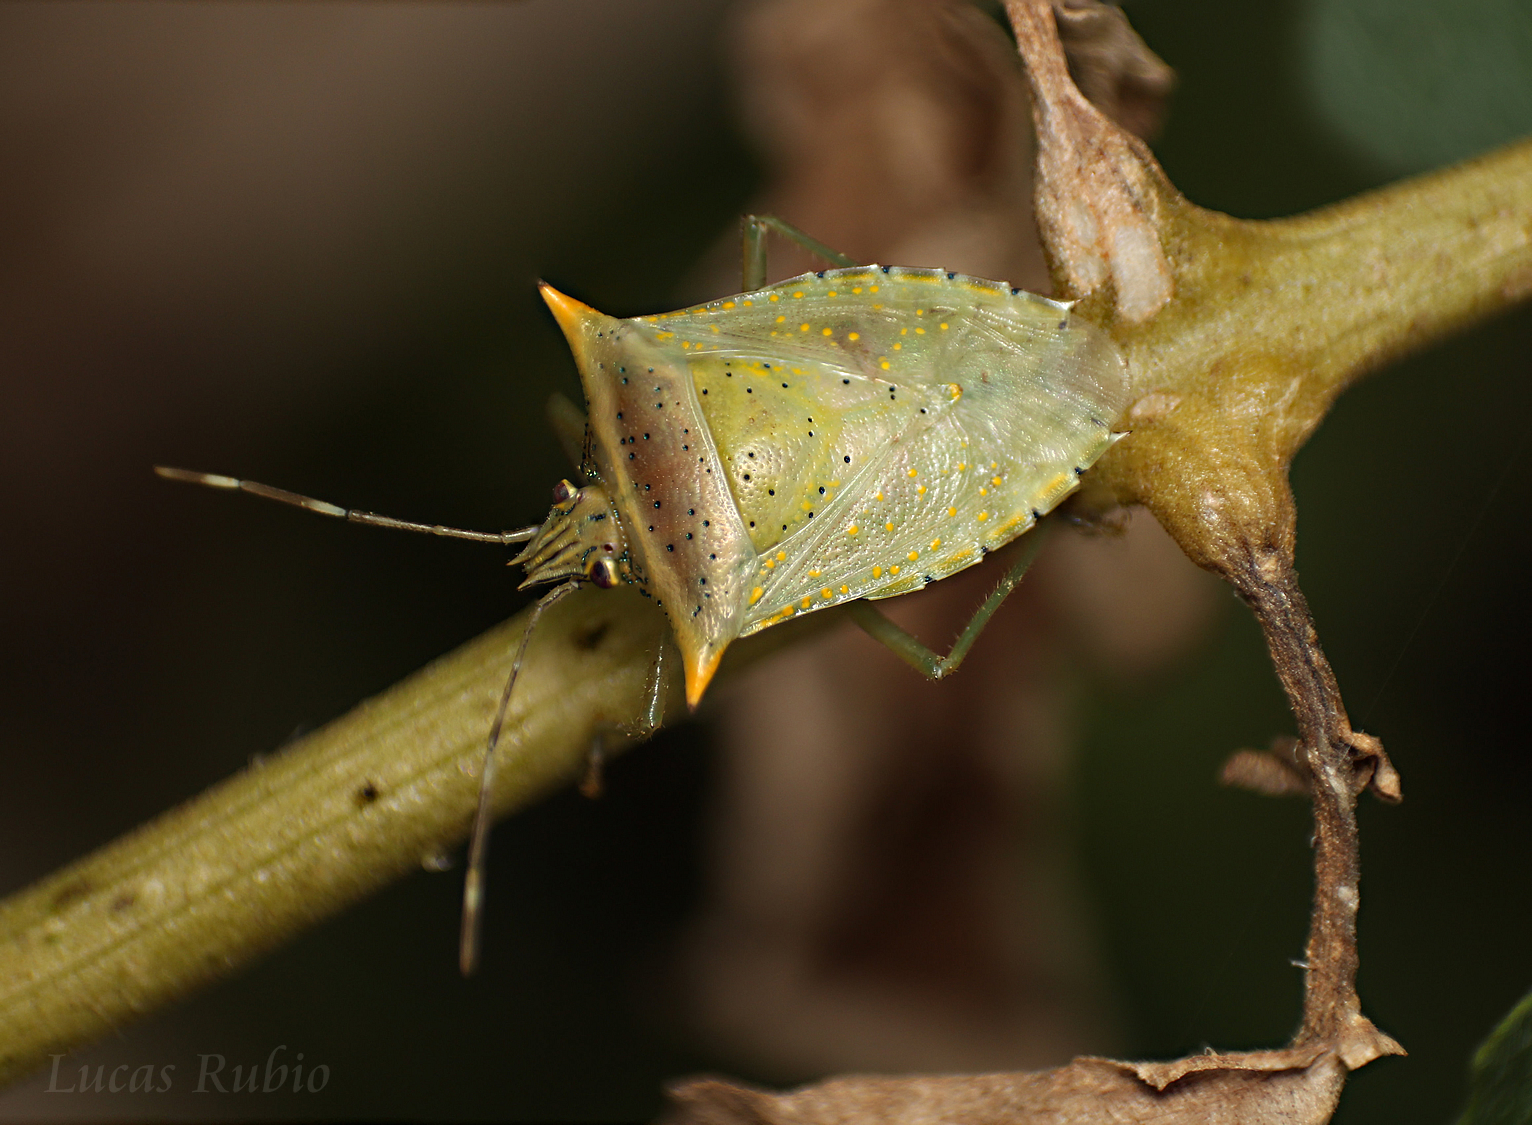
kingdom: Animalia
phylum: Arthropoda
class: Insecta
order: Hemiptera
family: Pentatomidae
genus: Arvelius
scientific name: Arvelius albopunctatus
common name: Tomato stink bug
